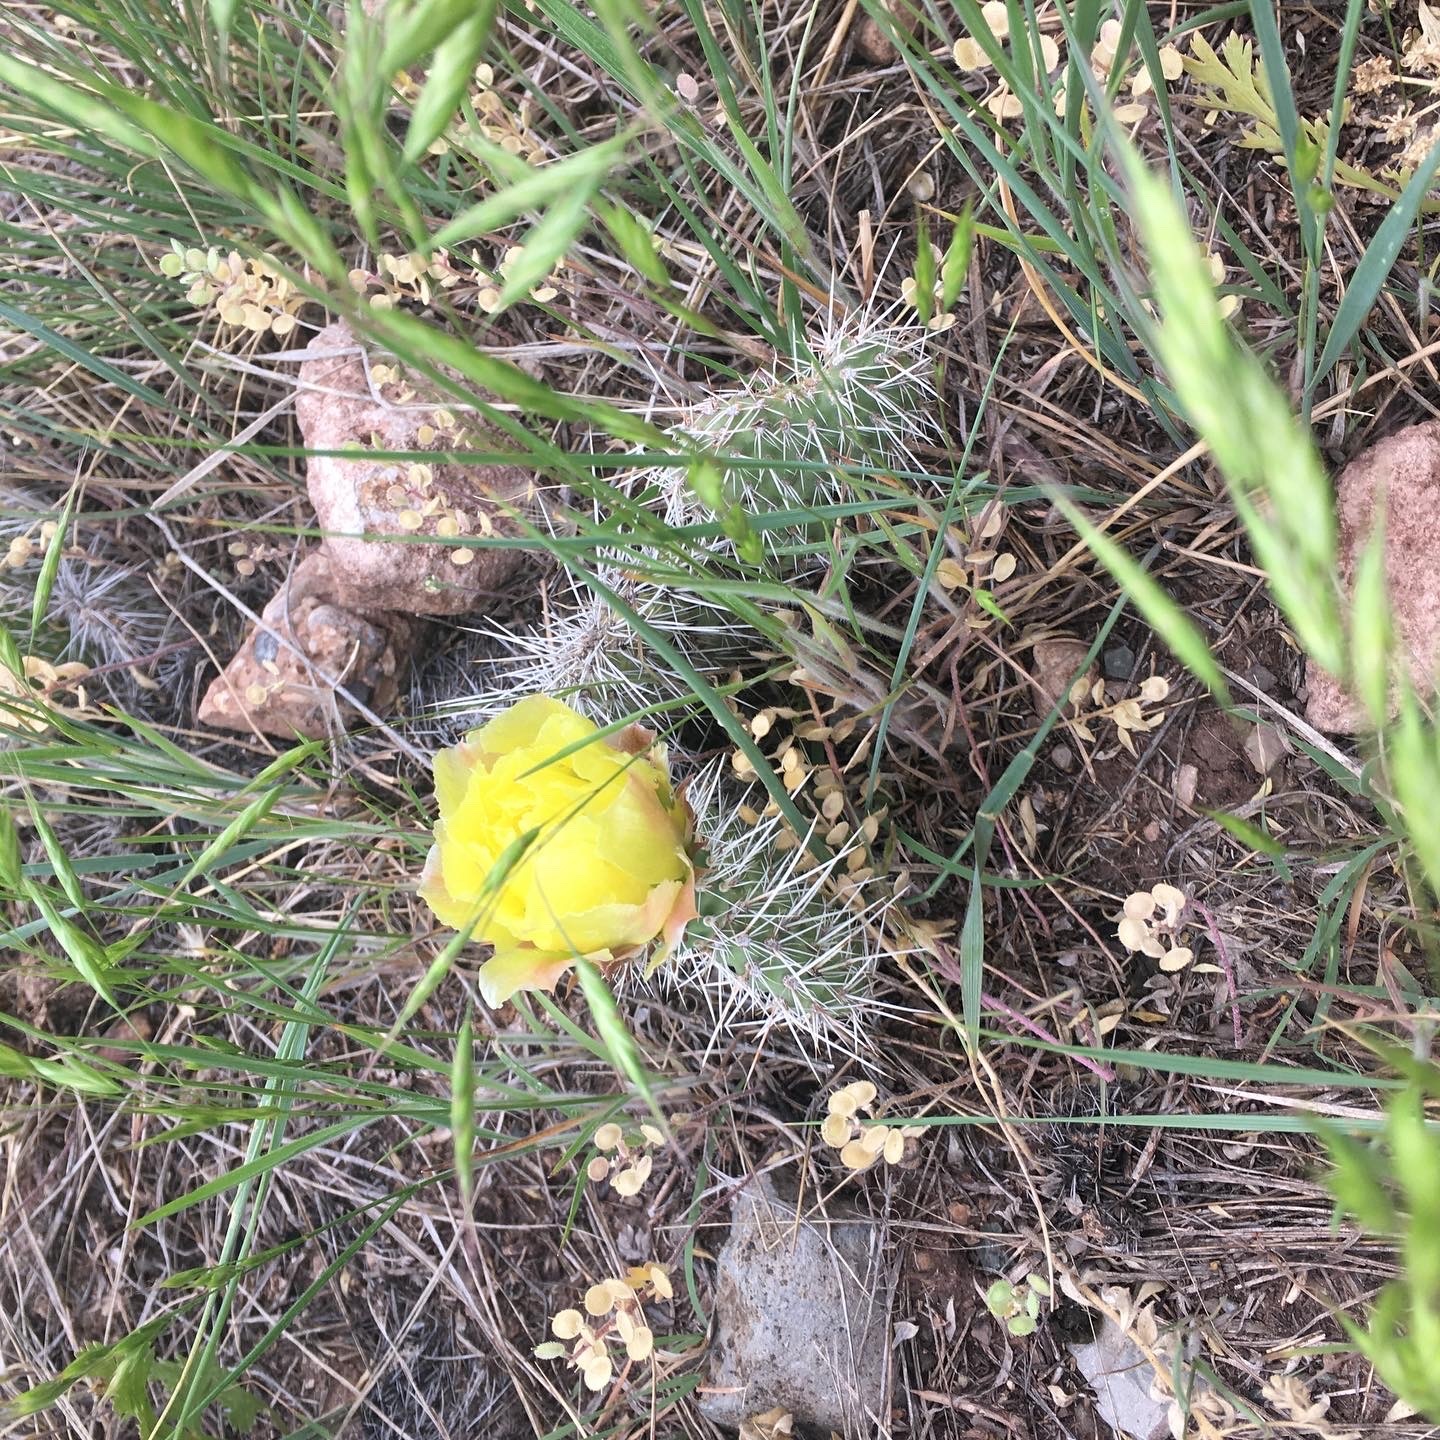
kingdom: Plantae
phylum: Tracheophyta
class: Magnoliopsida
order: Caryophyllales
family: Cactaceae
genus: Opuntia
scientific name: Opuntia polyacantha
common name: Plains prickly-pear
